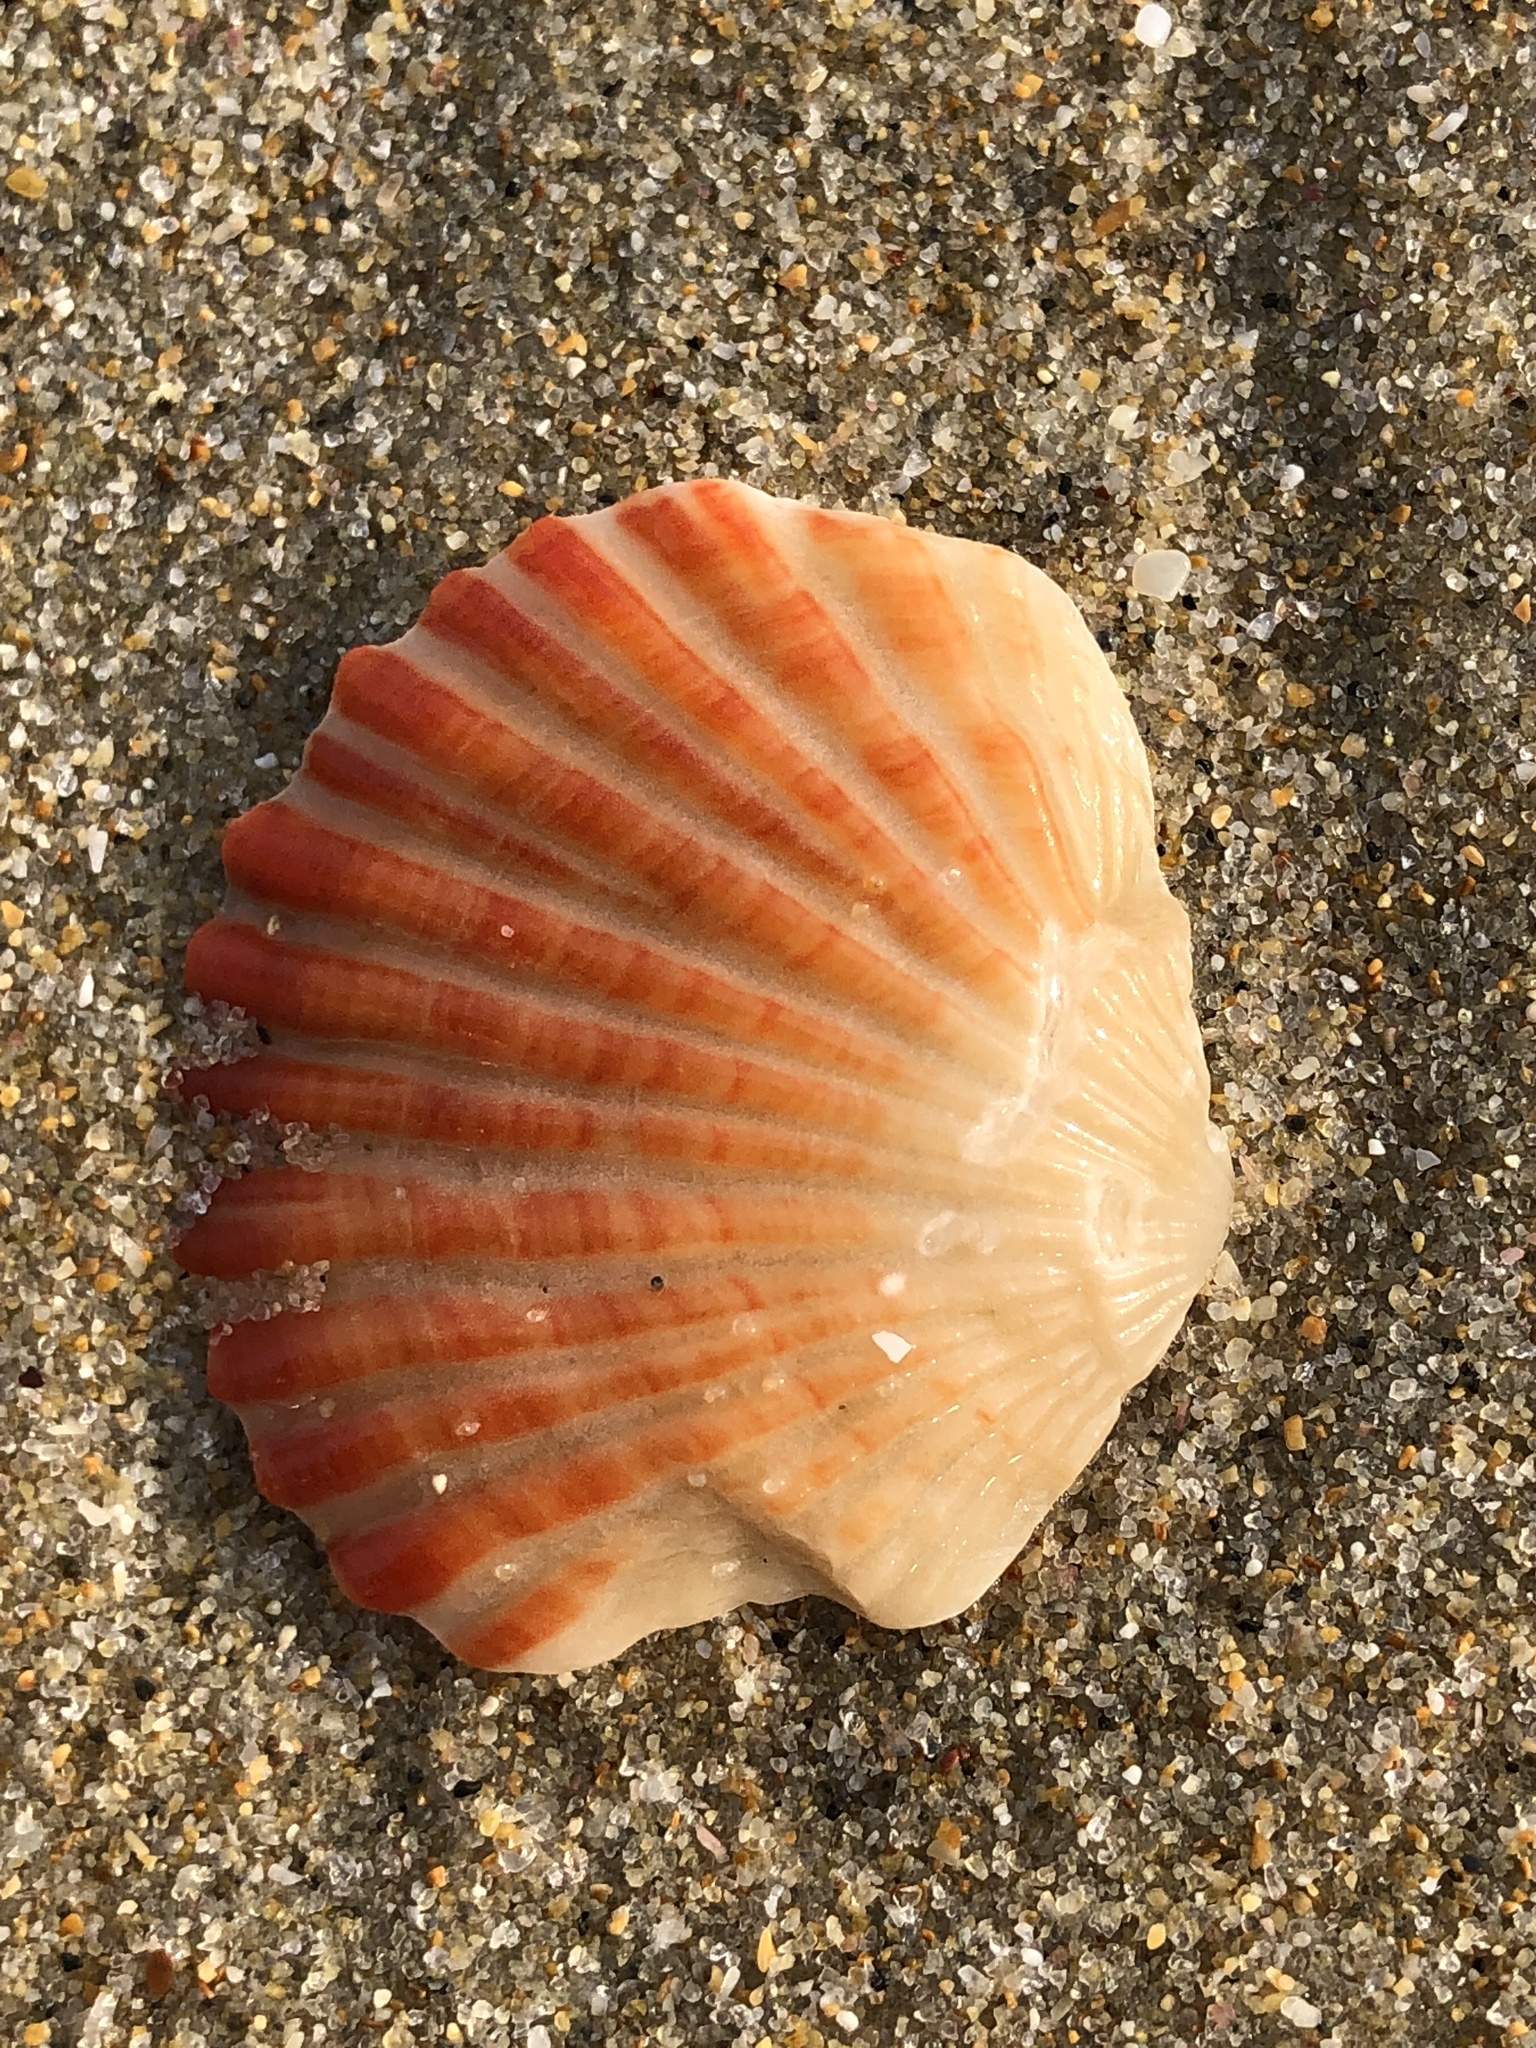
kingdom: Animalia
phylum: Brachiopoda
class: Rhynchonellata
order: Terebratulida
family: Terebrataliidae
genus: Coptothyris
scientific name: Coptothyris grayi
